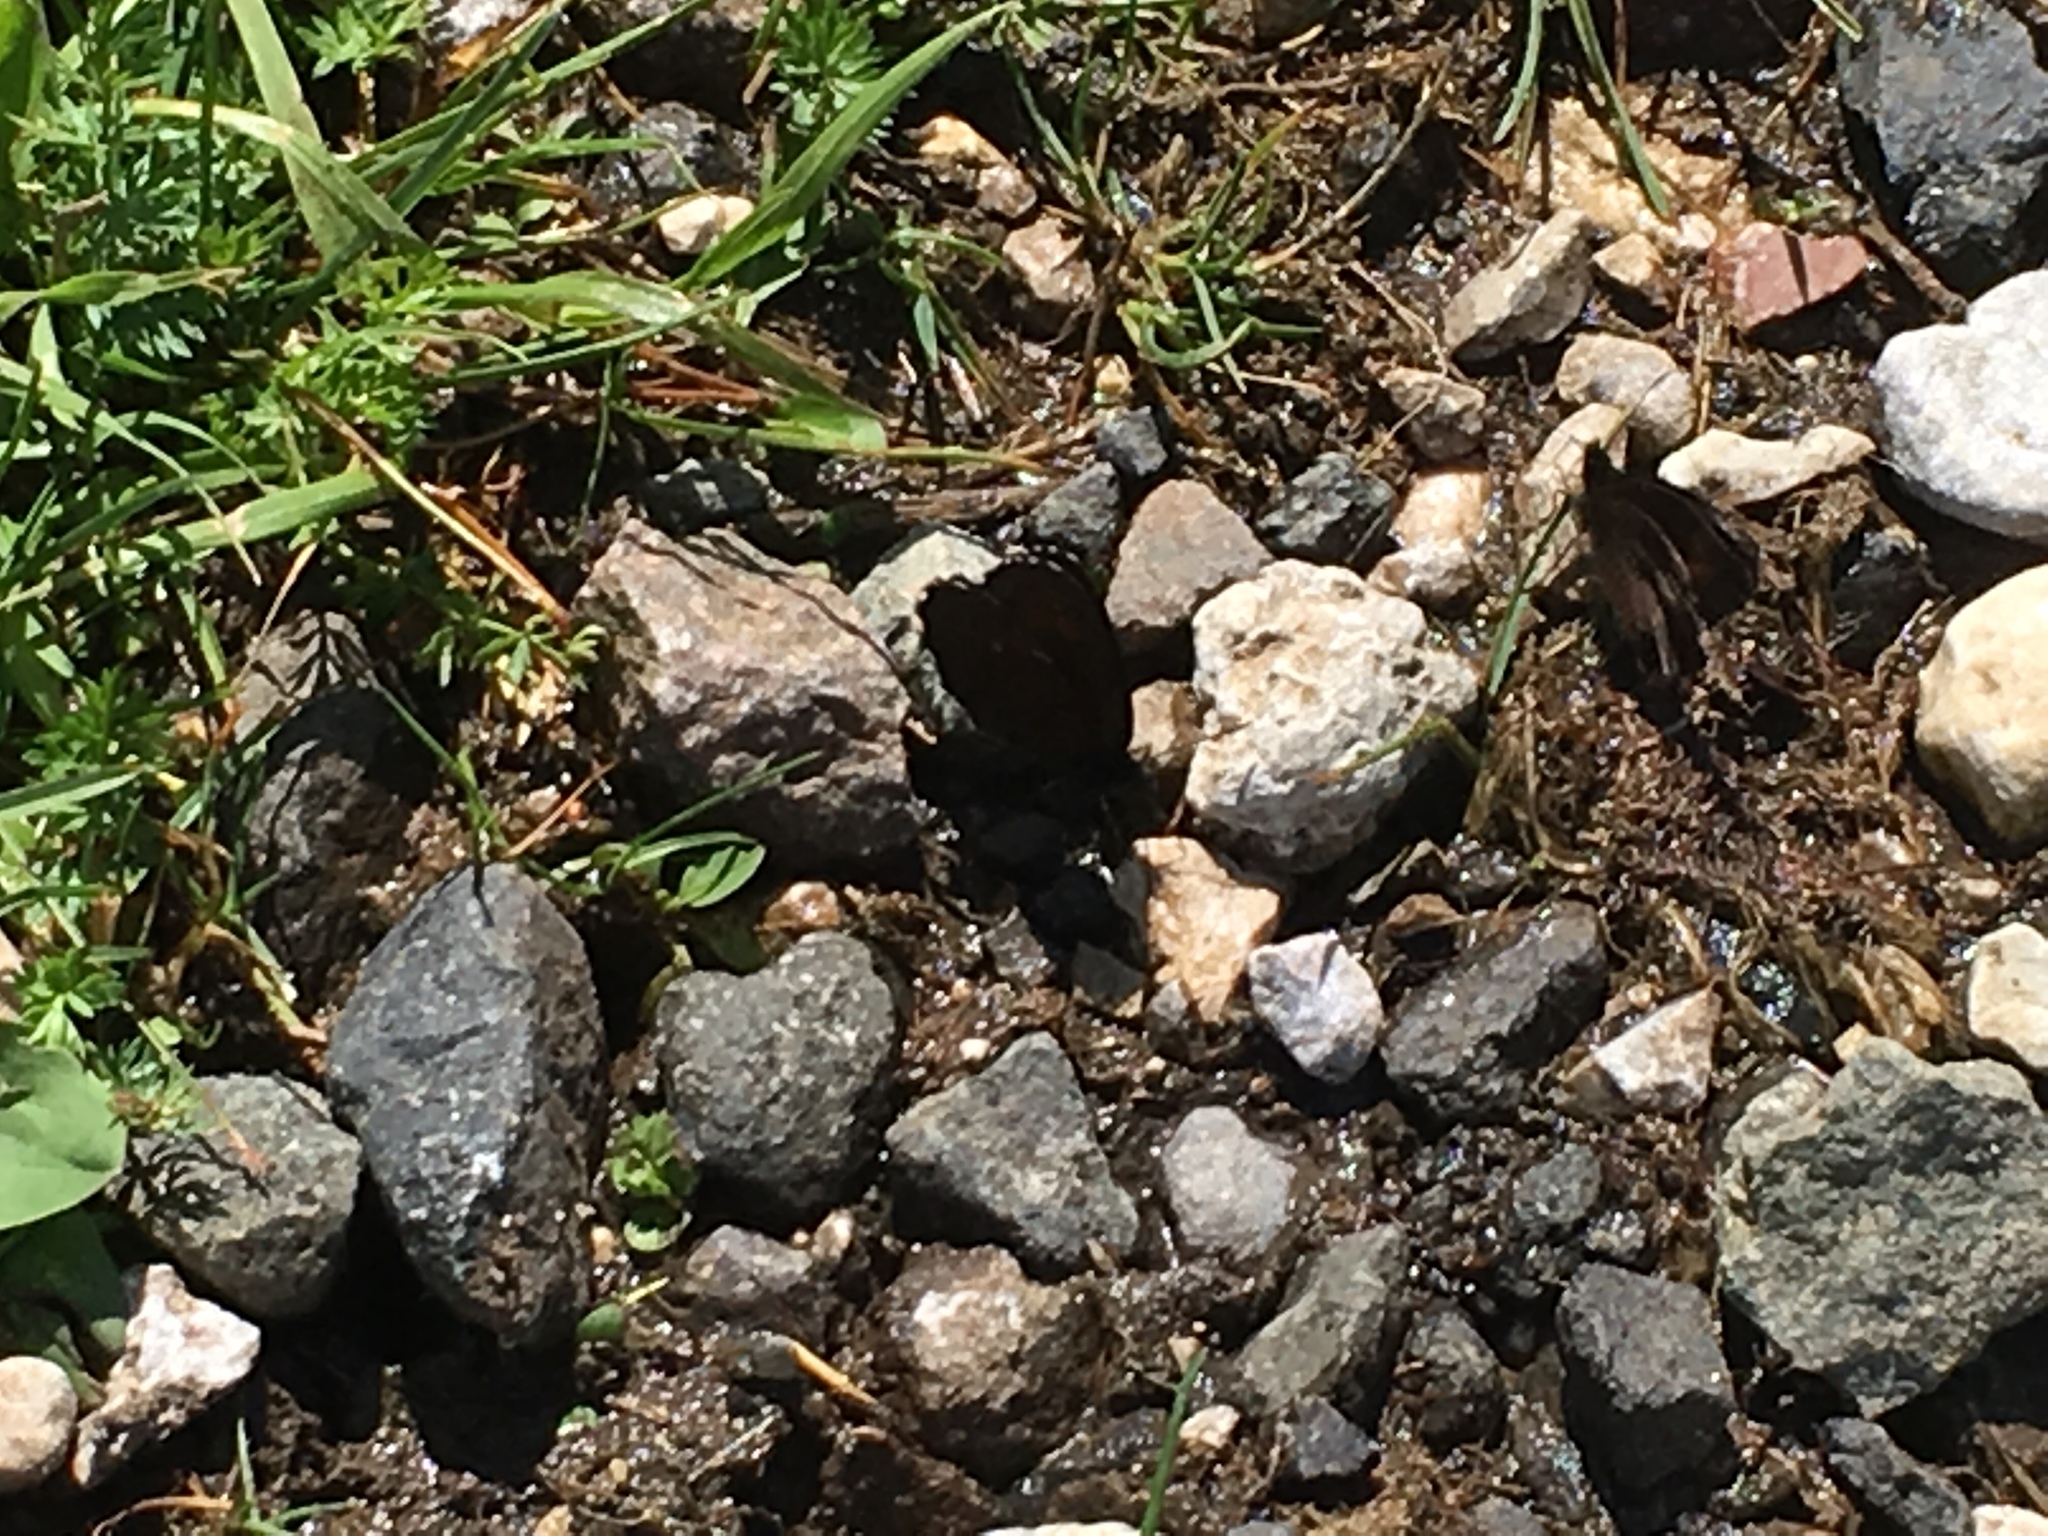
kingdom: Animalia
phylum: Arthropoda
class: Insecta
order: Lepidoptera
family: Nymphalidae
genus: Erebia
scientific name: Erebia euryale
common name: Large ringlet
